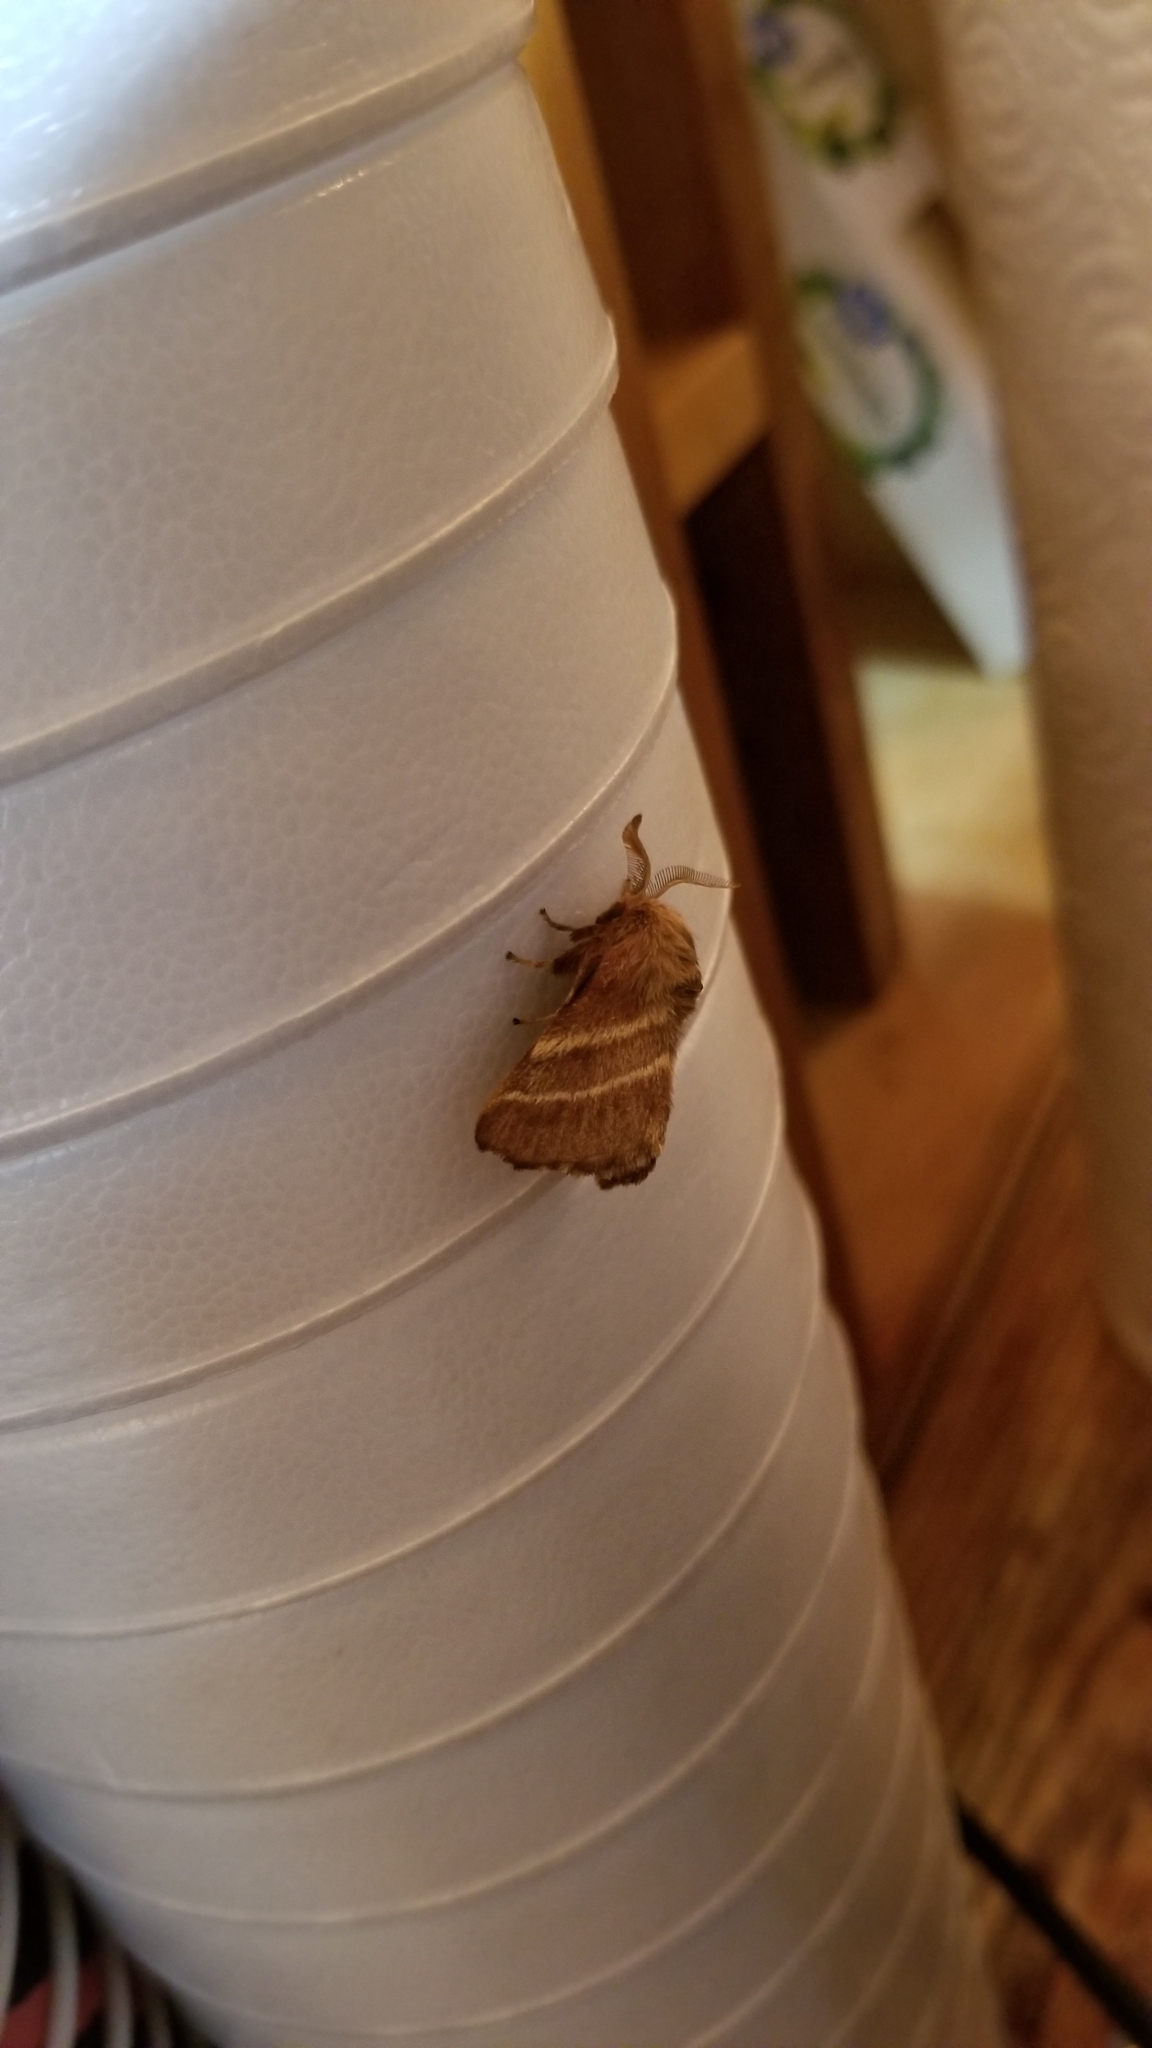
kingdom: Animalia
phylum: Arthropoda
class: Insecta
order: Lepidoptera
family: Lasiocampidae
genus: Malacosoma
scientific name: Malacosoma americana
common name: Eastern tent caterpillar moth
